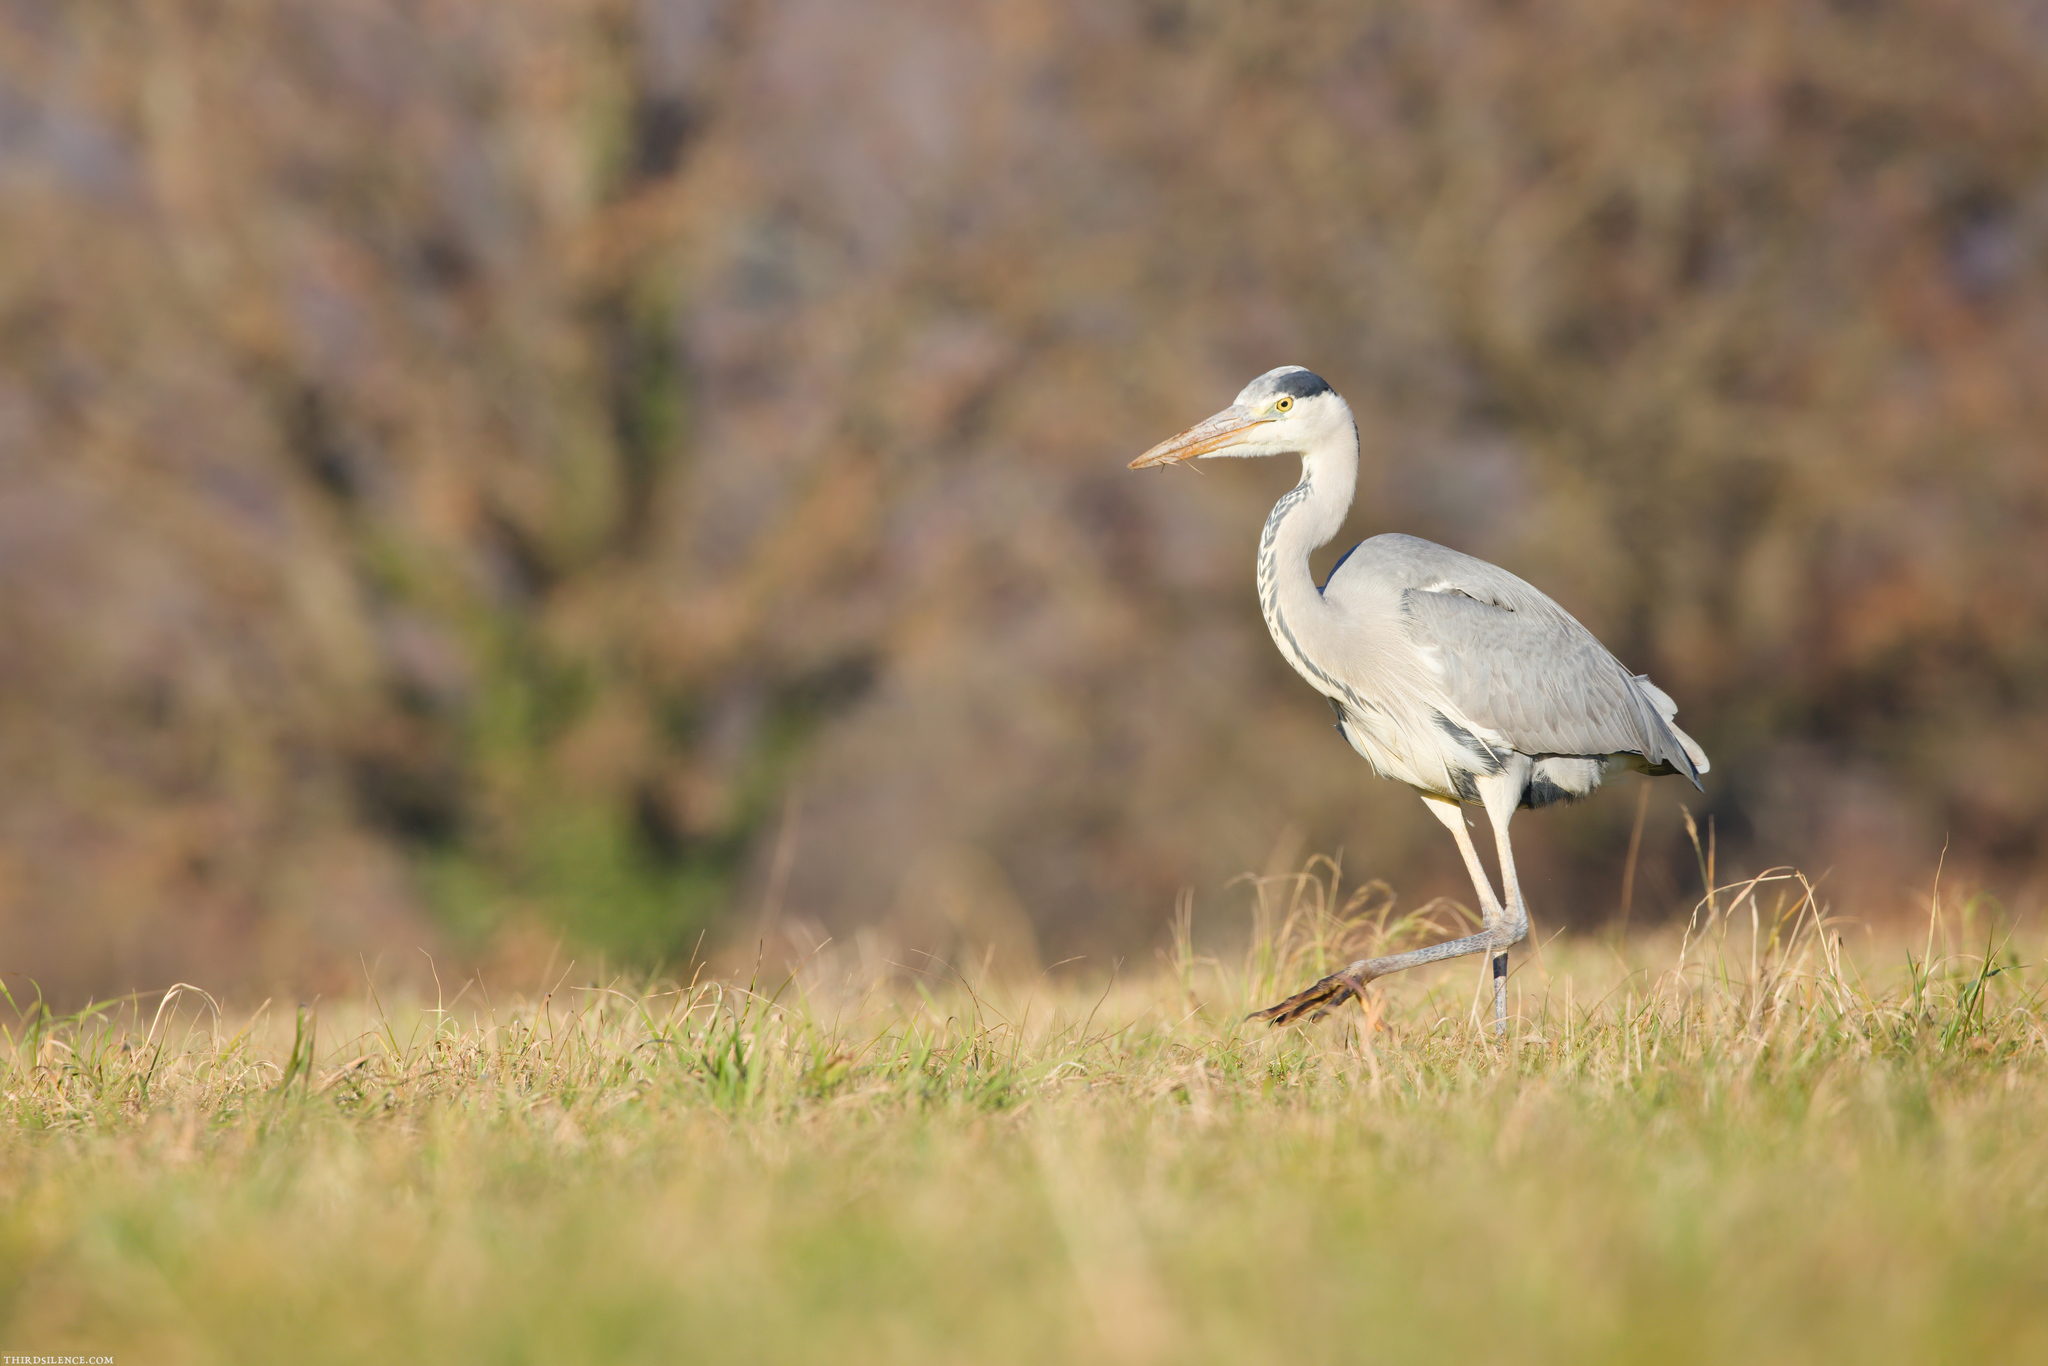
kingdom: Animalia
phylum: Chordata
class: Aves
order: Pelecaniformes
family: Ardeidae
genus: Ardea
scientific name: Ardea cinerea
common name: Grey heron
